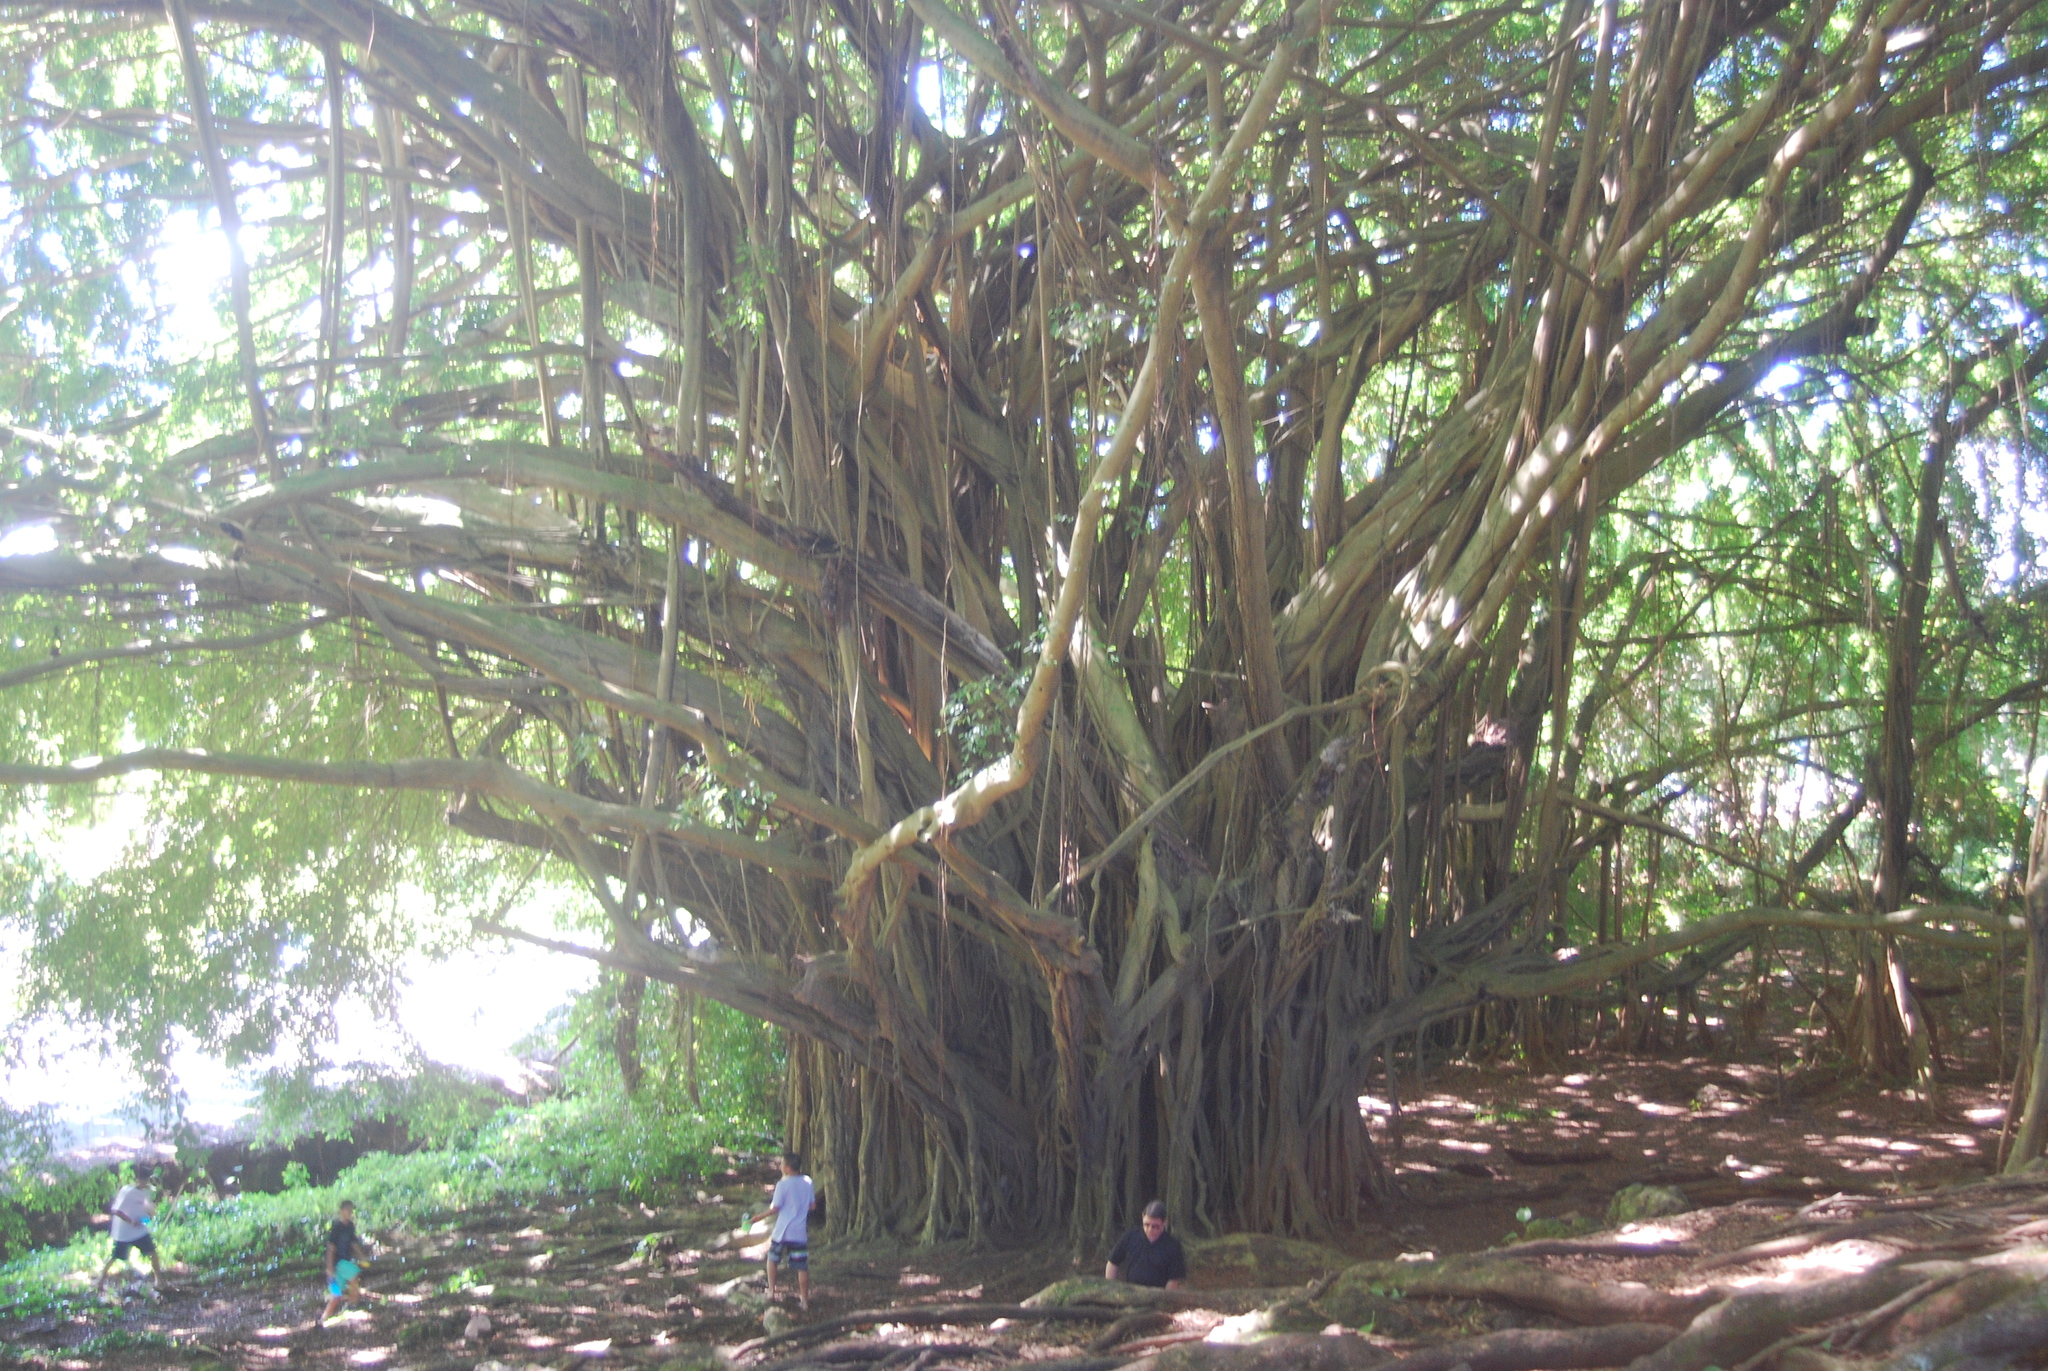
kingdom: Plantae
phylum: Tracheophyta
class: Magnoliopsida
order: Rosales
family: Moraceae
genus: Ficus
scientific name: Ficus microcarpa
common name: Chinese banyan
